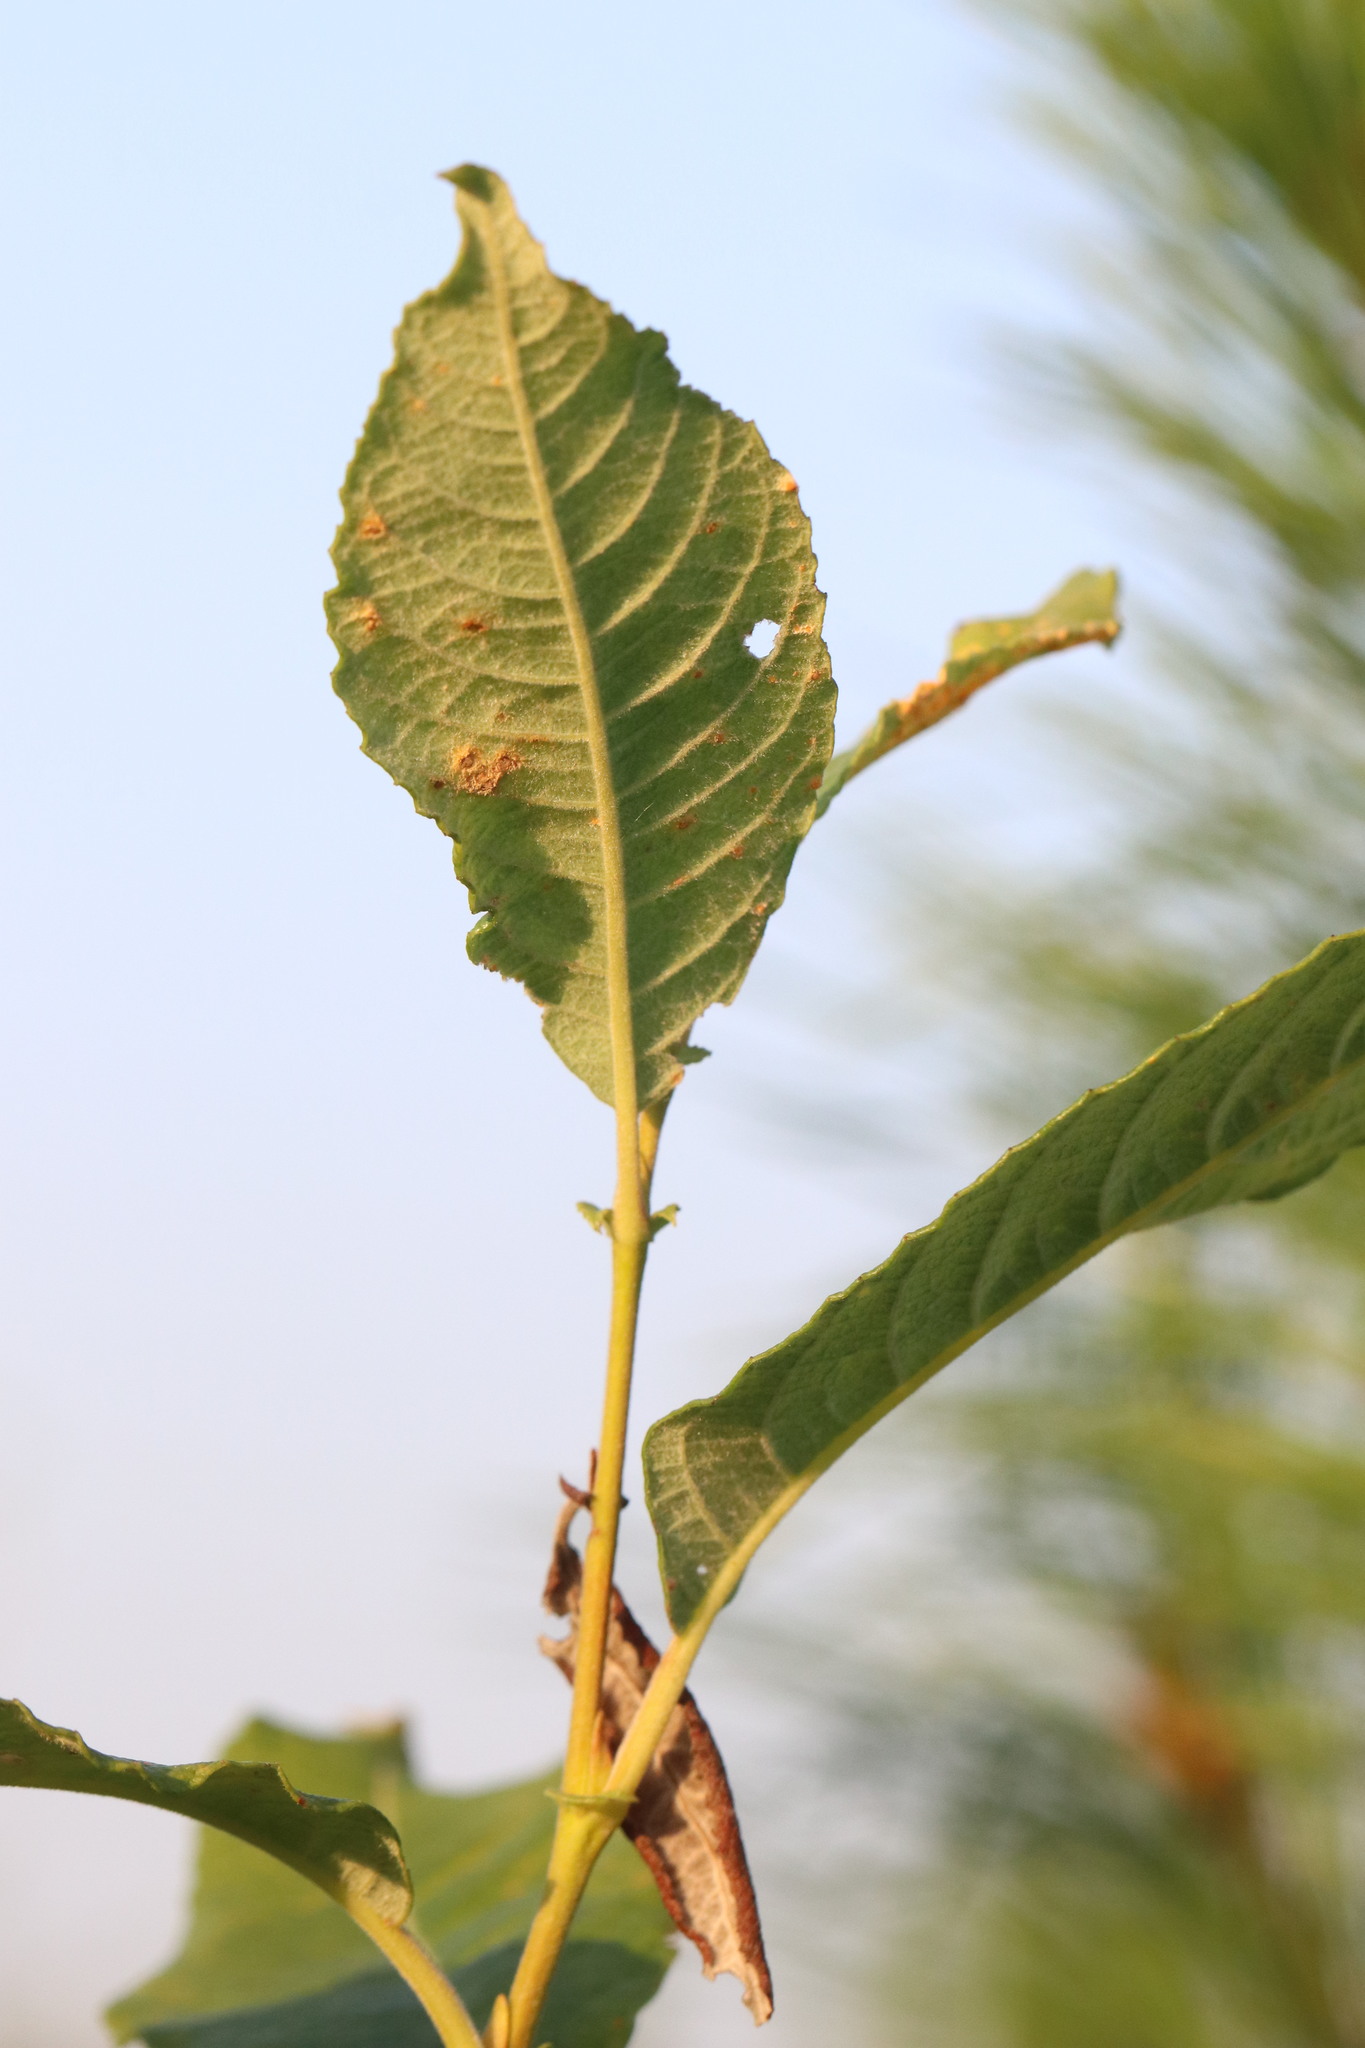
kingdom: Plantae
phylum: Tracheophyta
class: Magnoliopsida
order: Malpighiales
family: Salicaceae
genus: Salix
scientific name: Salix caprea
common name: Goat willow
